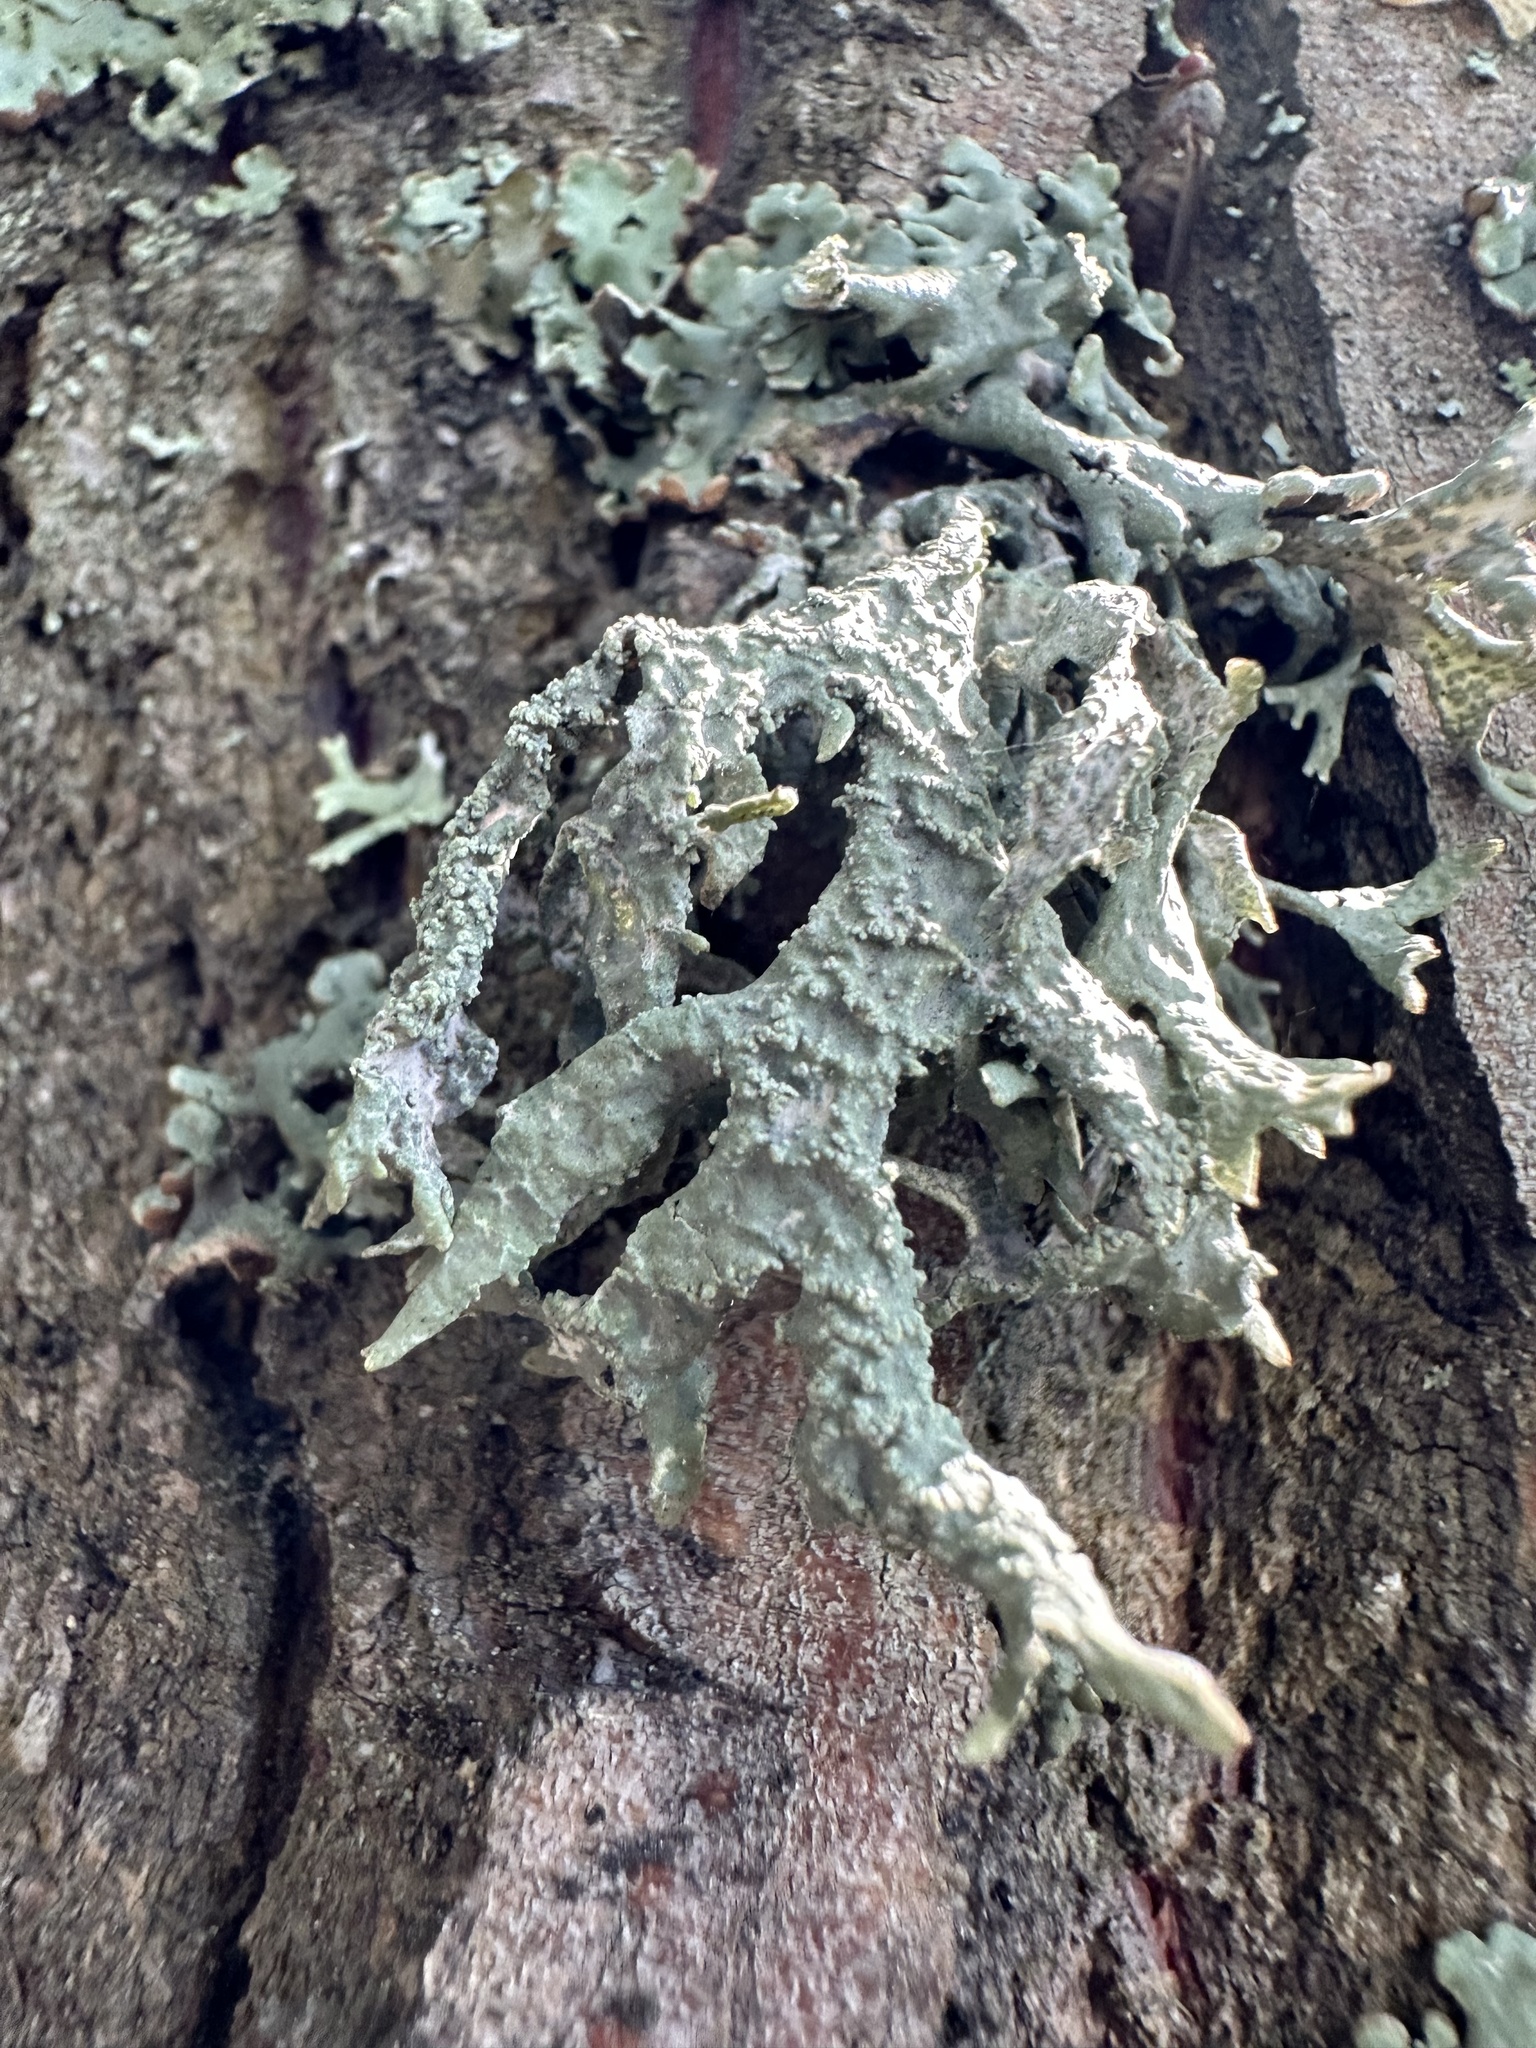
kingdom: Fungi
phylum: Ascomycota
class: Lecanoromycetes
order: Lecanorales
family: Parmeliaceae
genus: Evernia
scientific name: Evernia prunastri
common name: Oak moss
